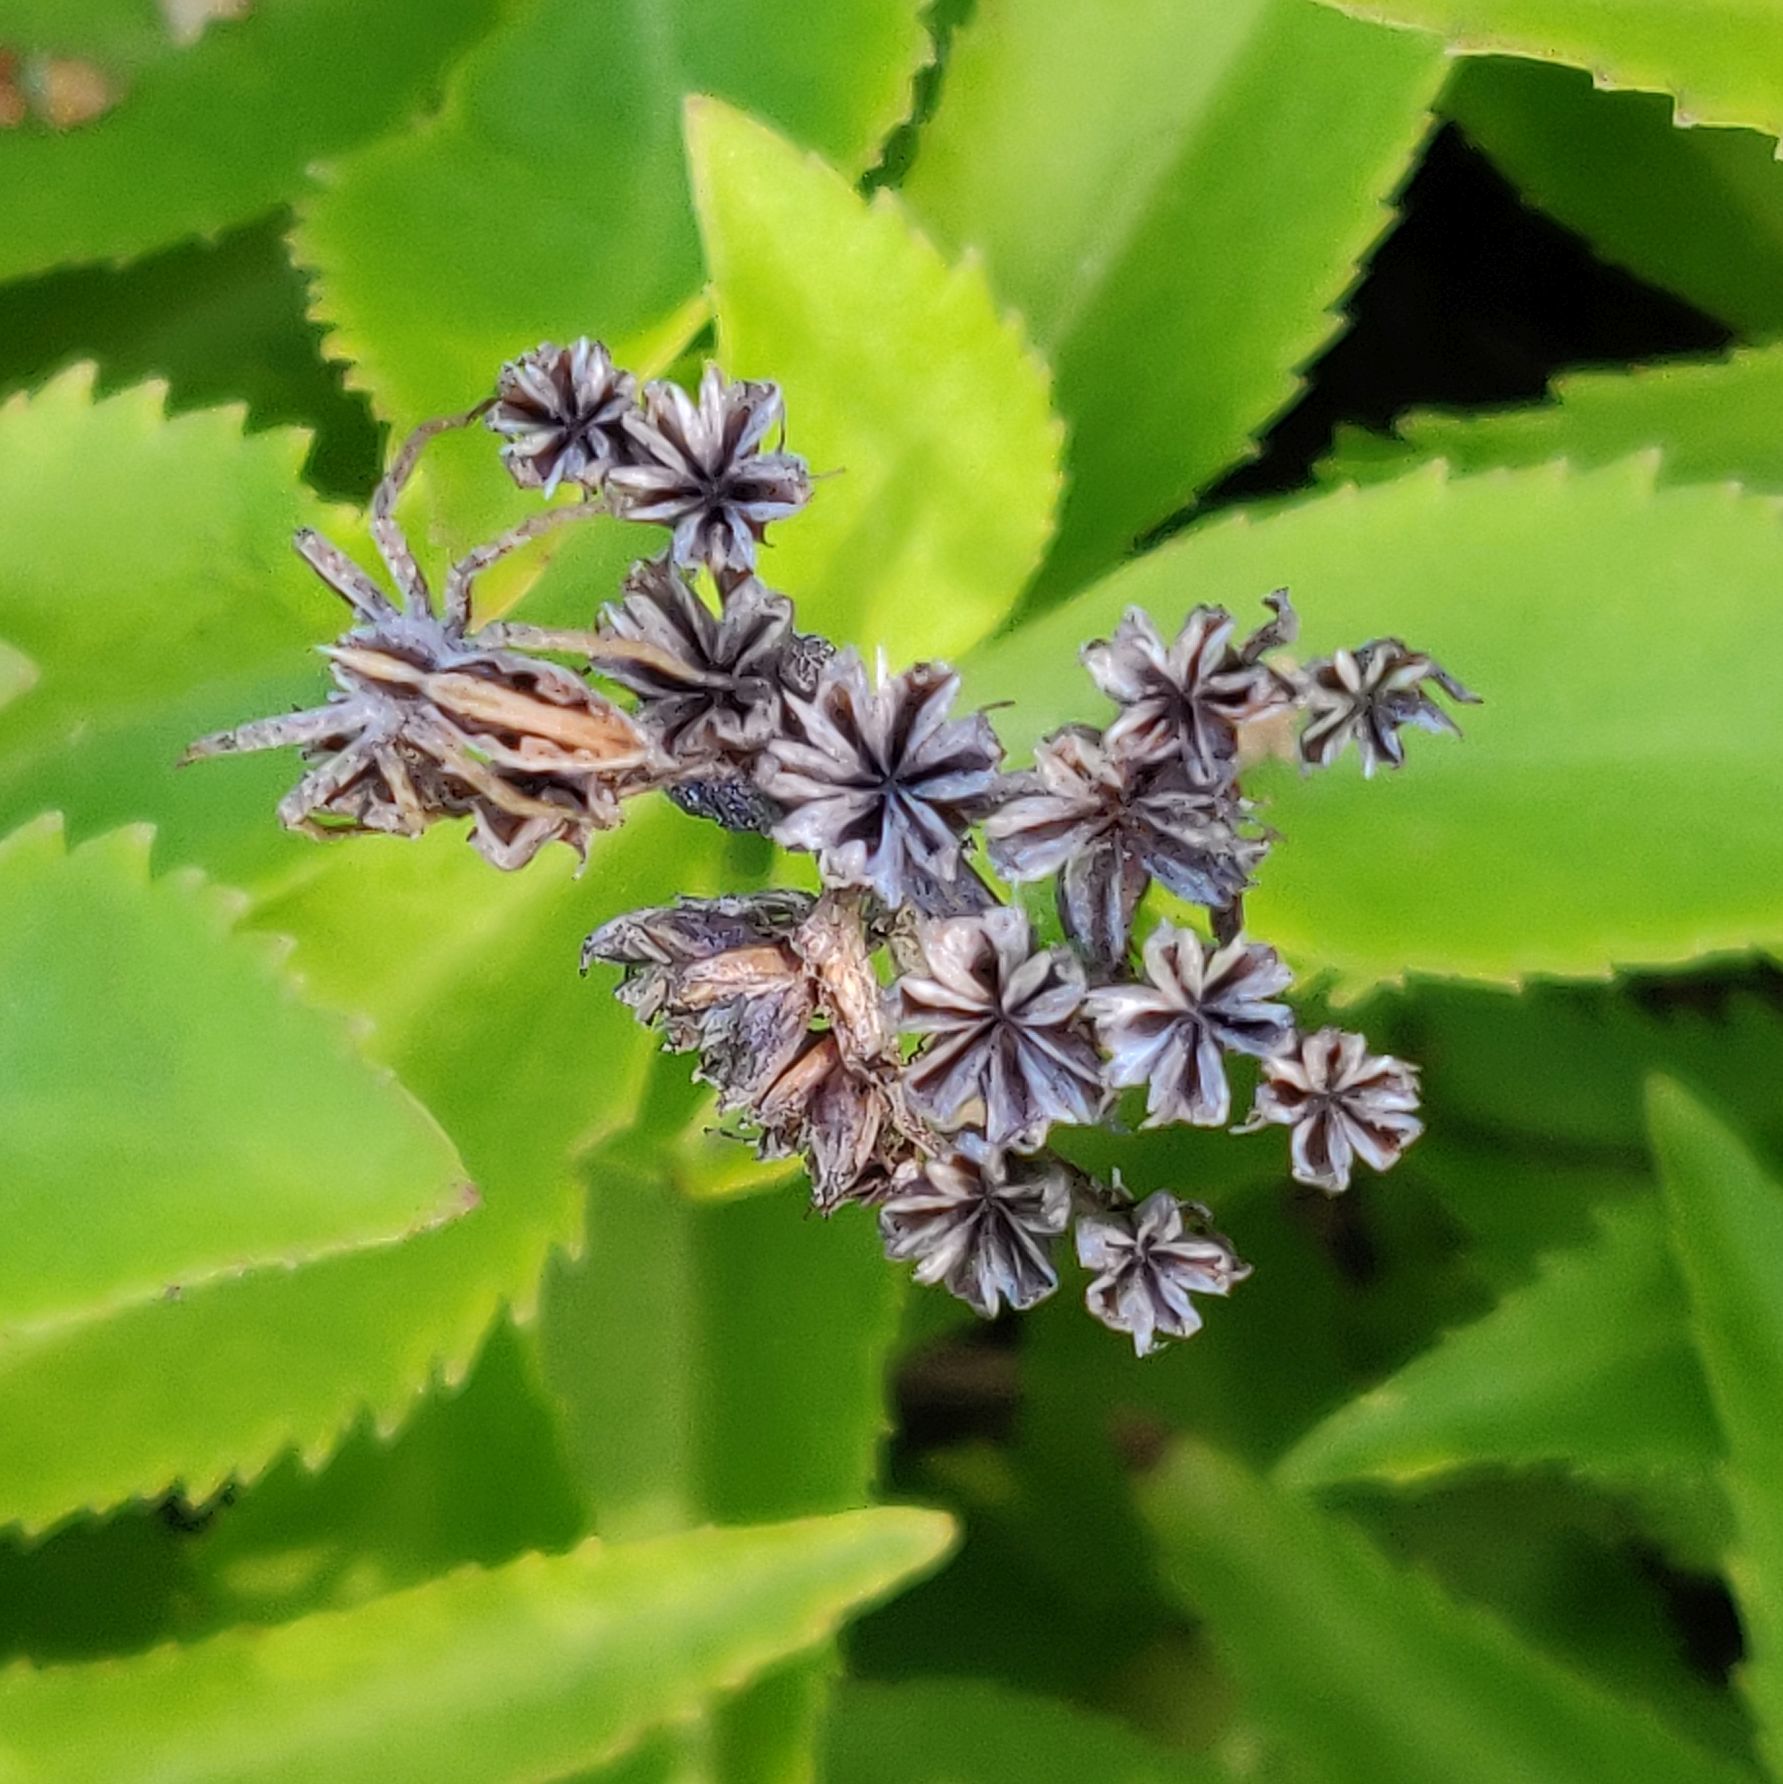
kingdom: Animalia
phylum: Arthropoda
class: Arachnida
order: Araneae
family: Pisauridae
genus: Pisaura
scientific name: Pisaura mirabilis
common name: Tent spider
